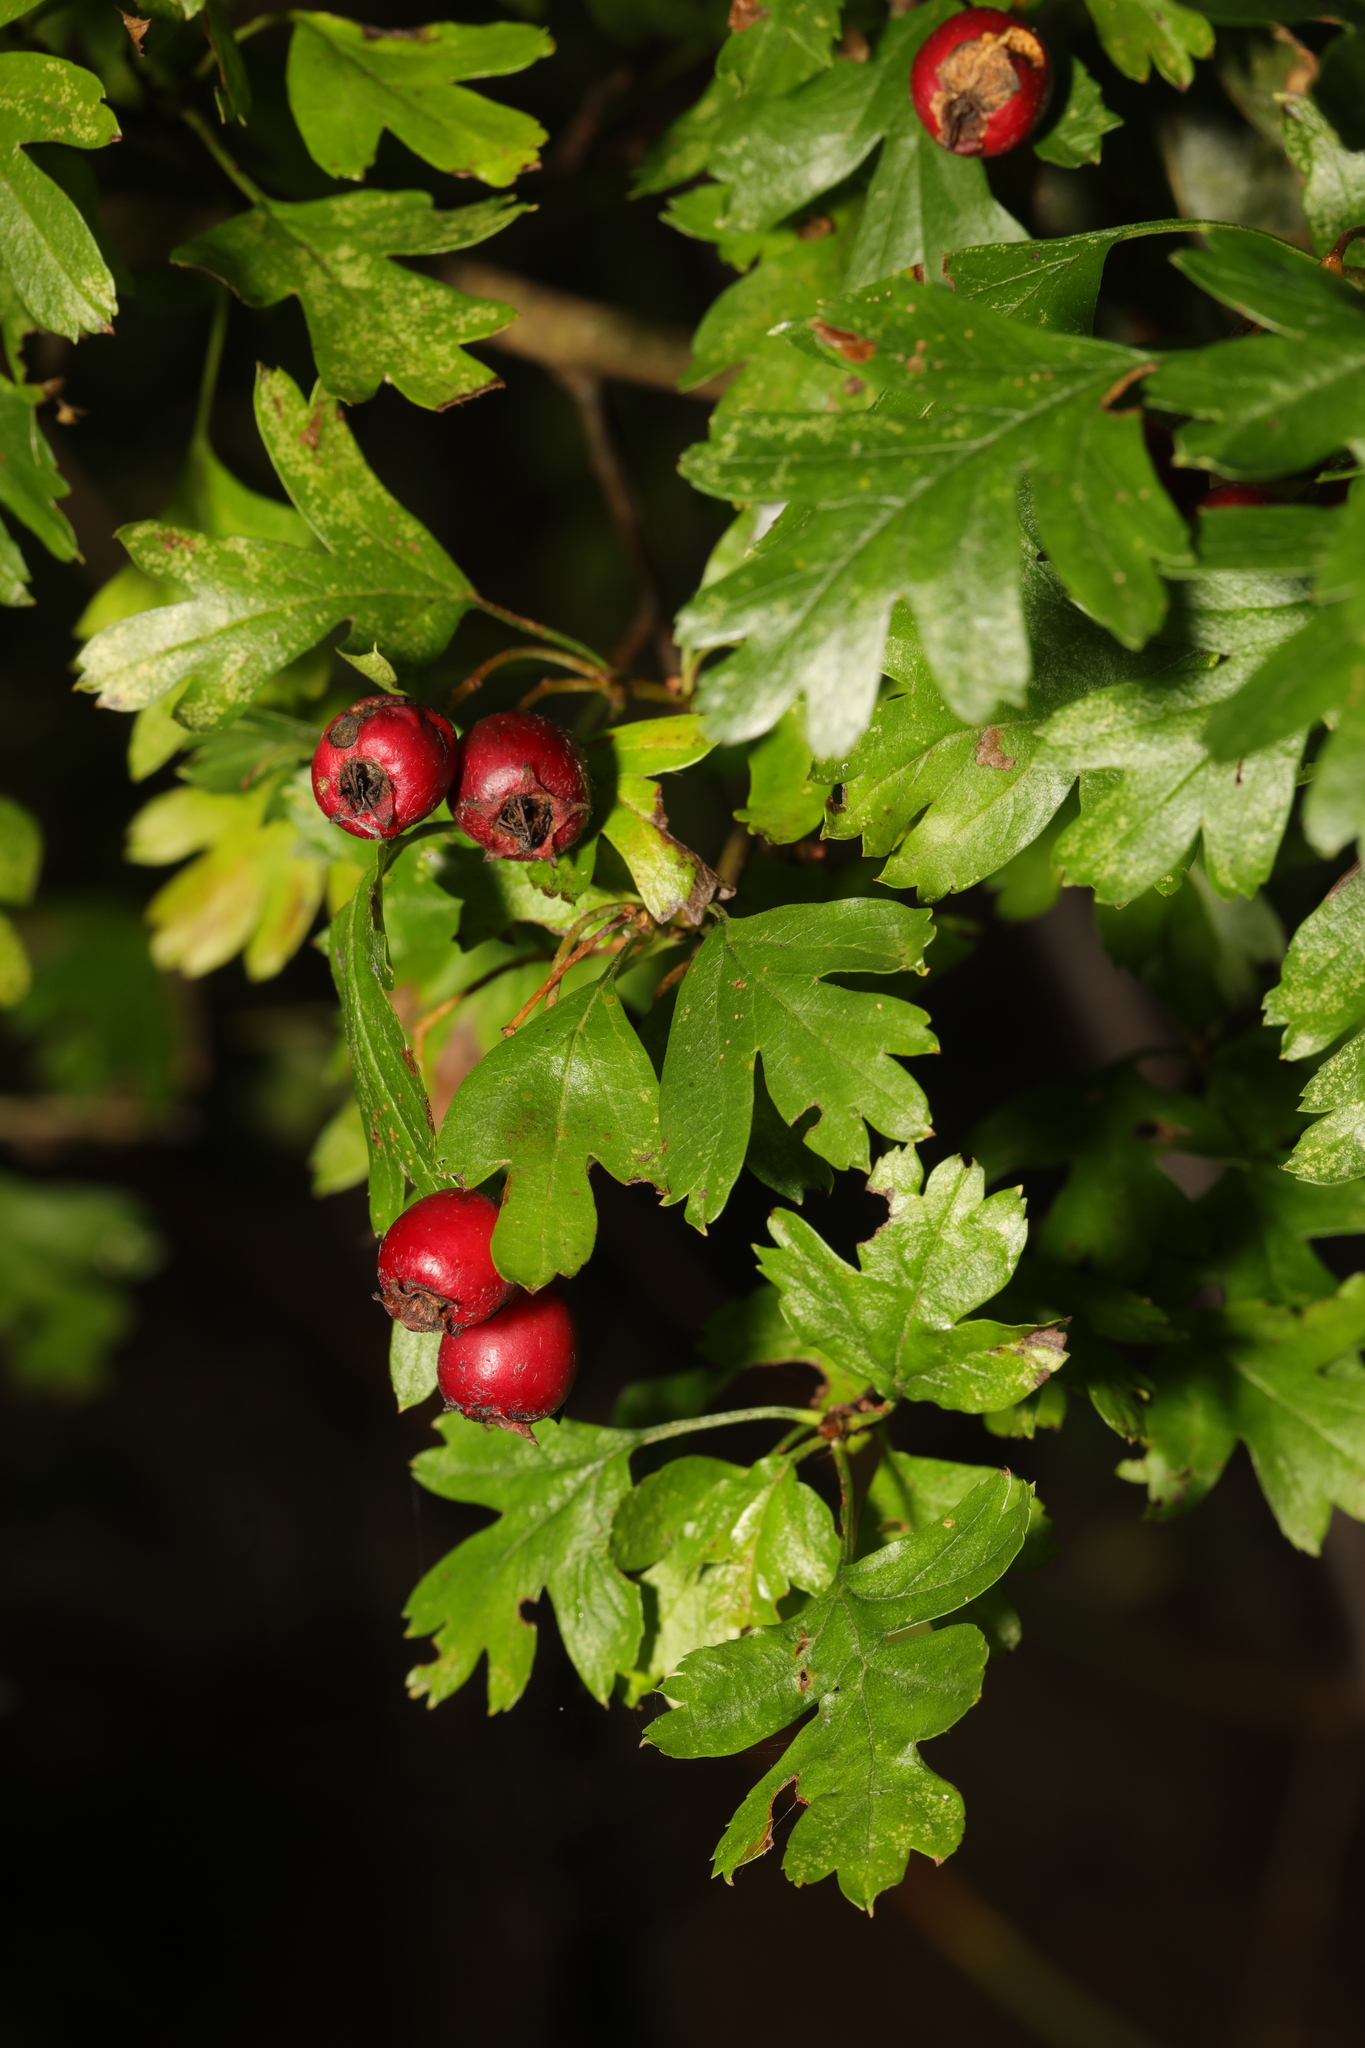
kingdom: Plantae
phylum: Tracheophyta
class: Magnoliopsida
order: Rosales
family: Rosaceae
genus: Crataegus
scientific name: Crataegus monogyna
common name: Hawthorn
